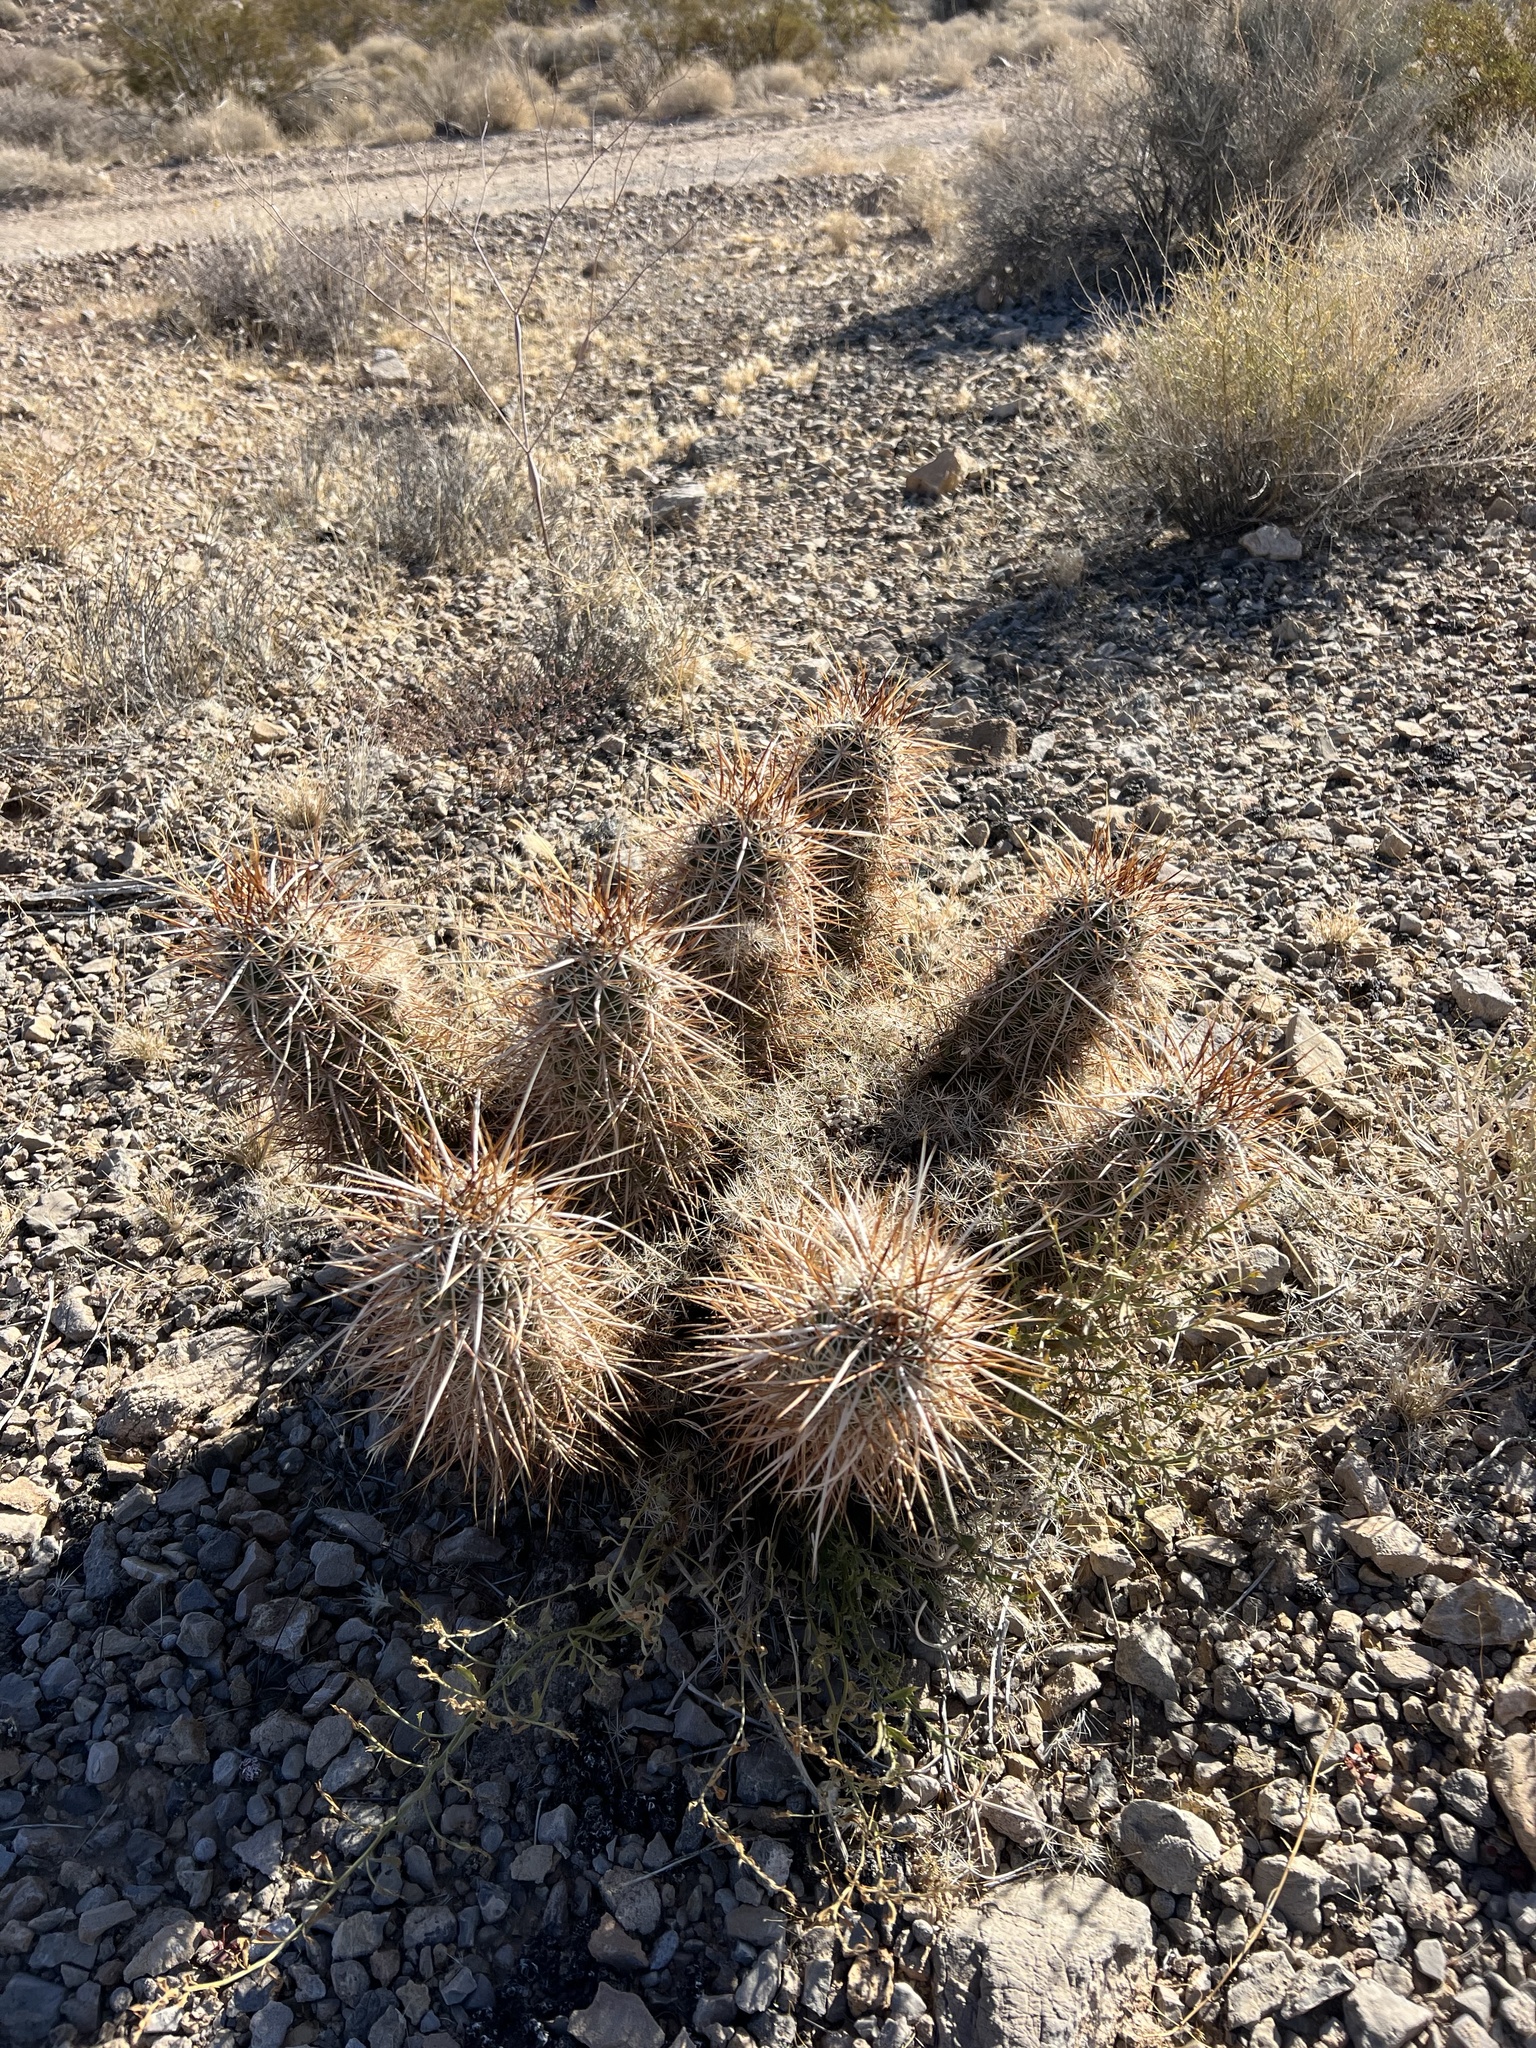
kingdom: Plantae
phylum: Tracheophyta
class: Magnoliopsida
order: Caryophyllales
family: Cactaceae
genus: Echinocereus
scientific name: Echinocereus engelmannii
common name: Engelmann's hedgehog cactus
